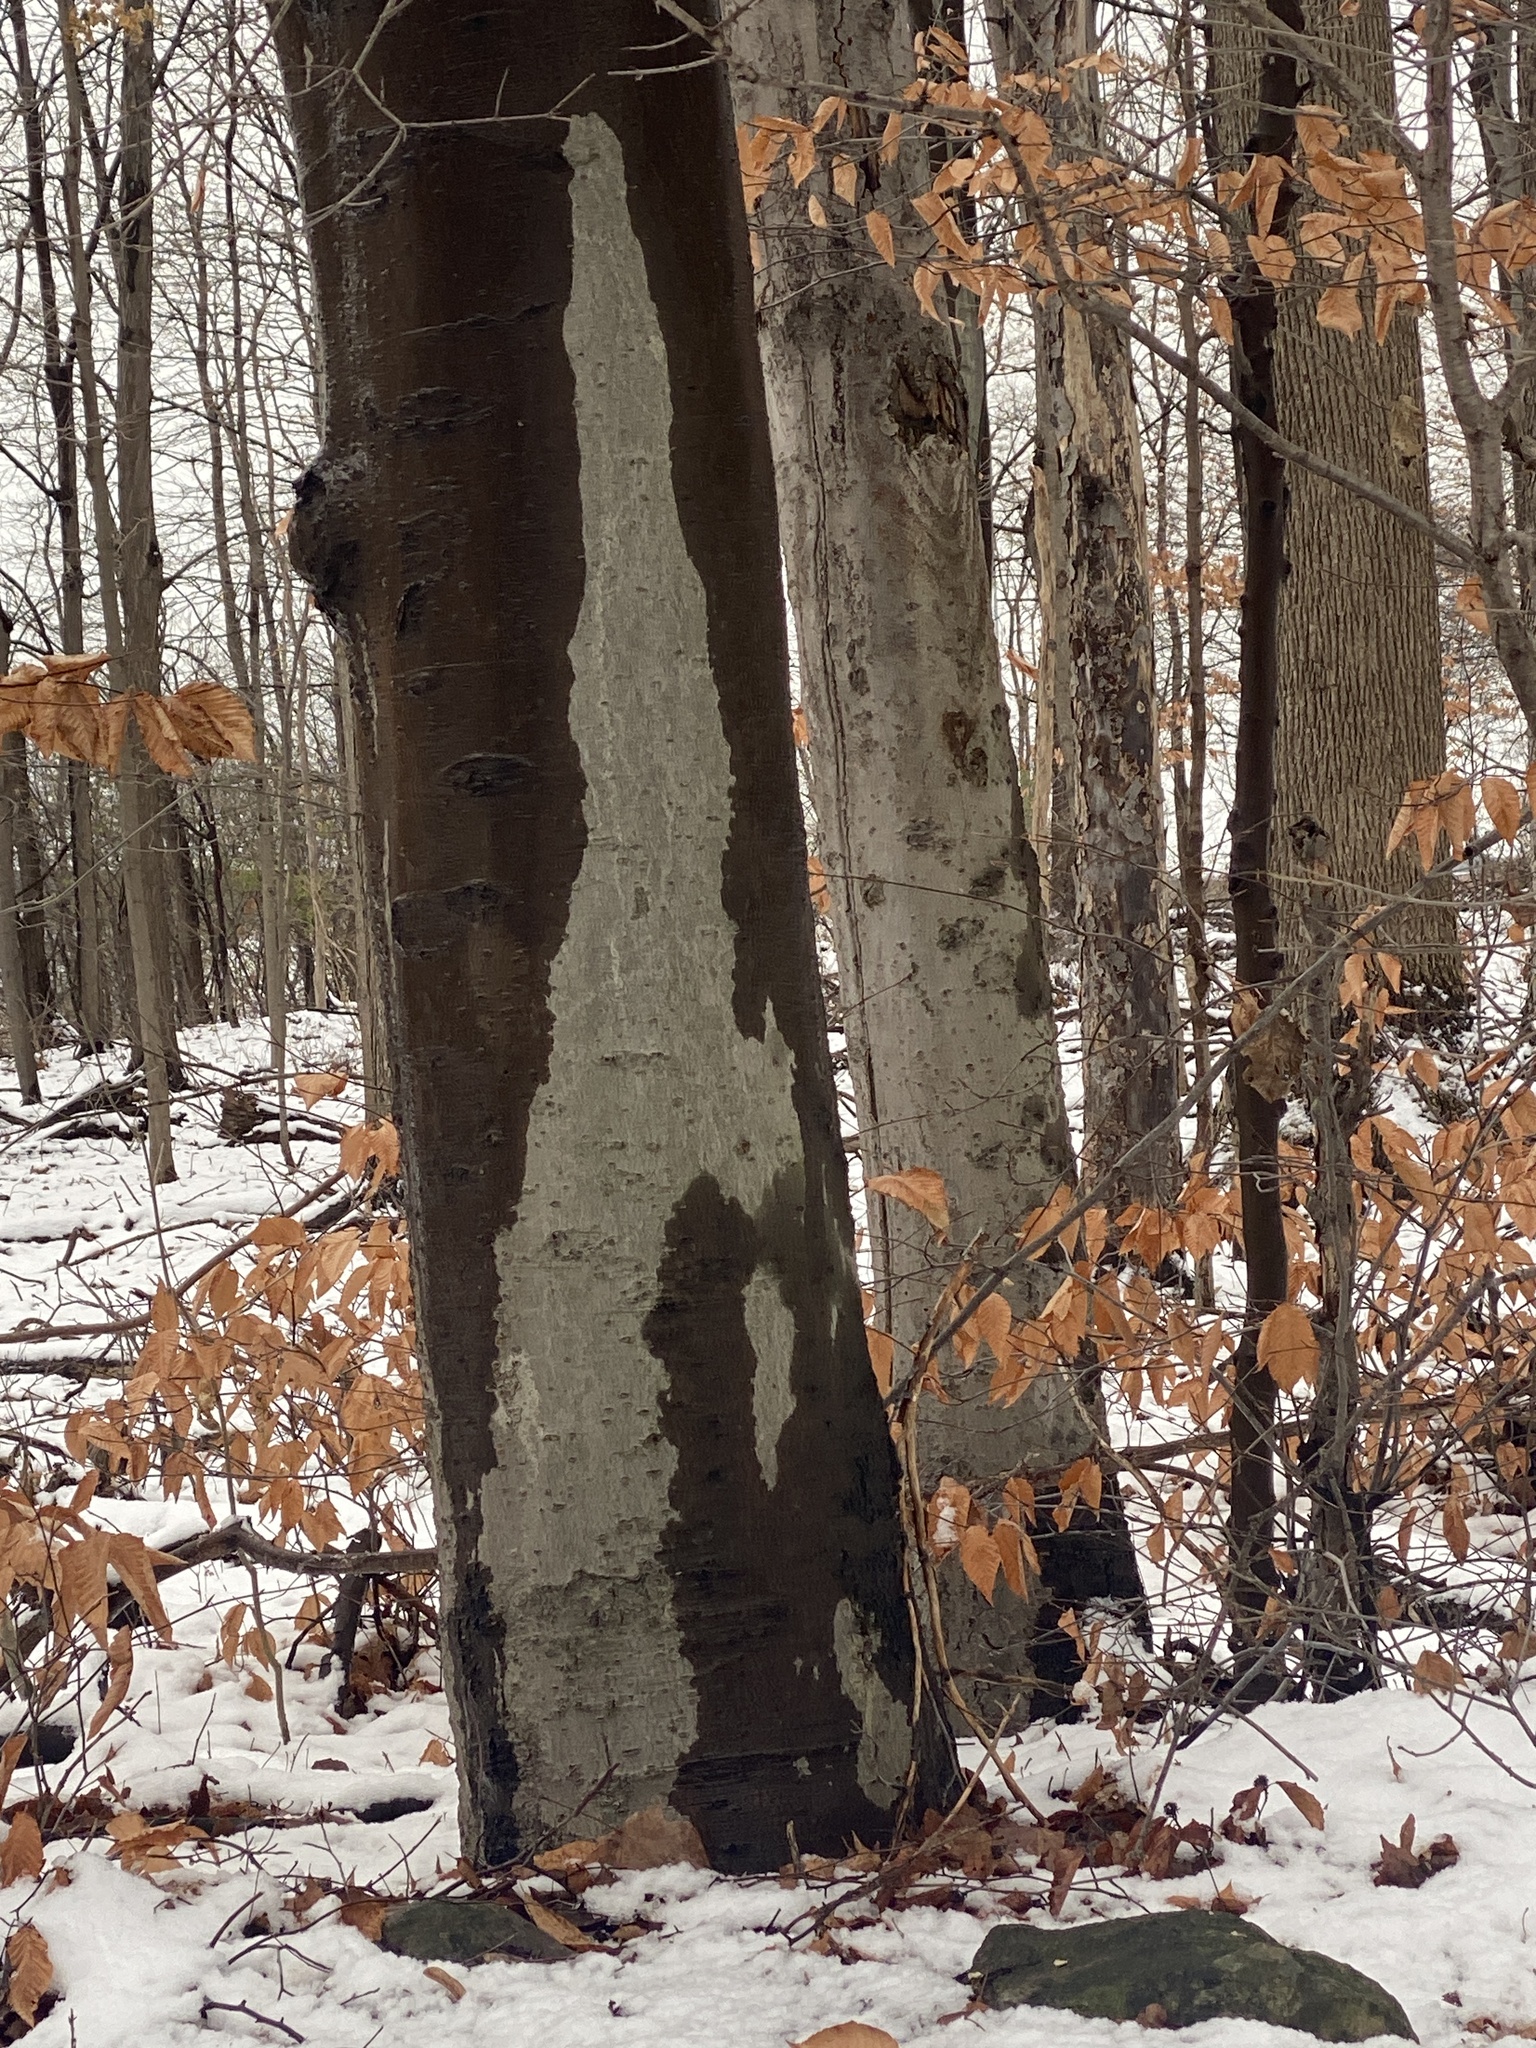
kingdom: Plantae
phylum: Tracheophyta
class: Magnoliopsida
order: Fagales
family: Fagaceae
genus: Fagus
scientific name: Fagus grandifolia
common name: American beech
